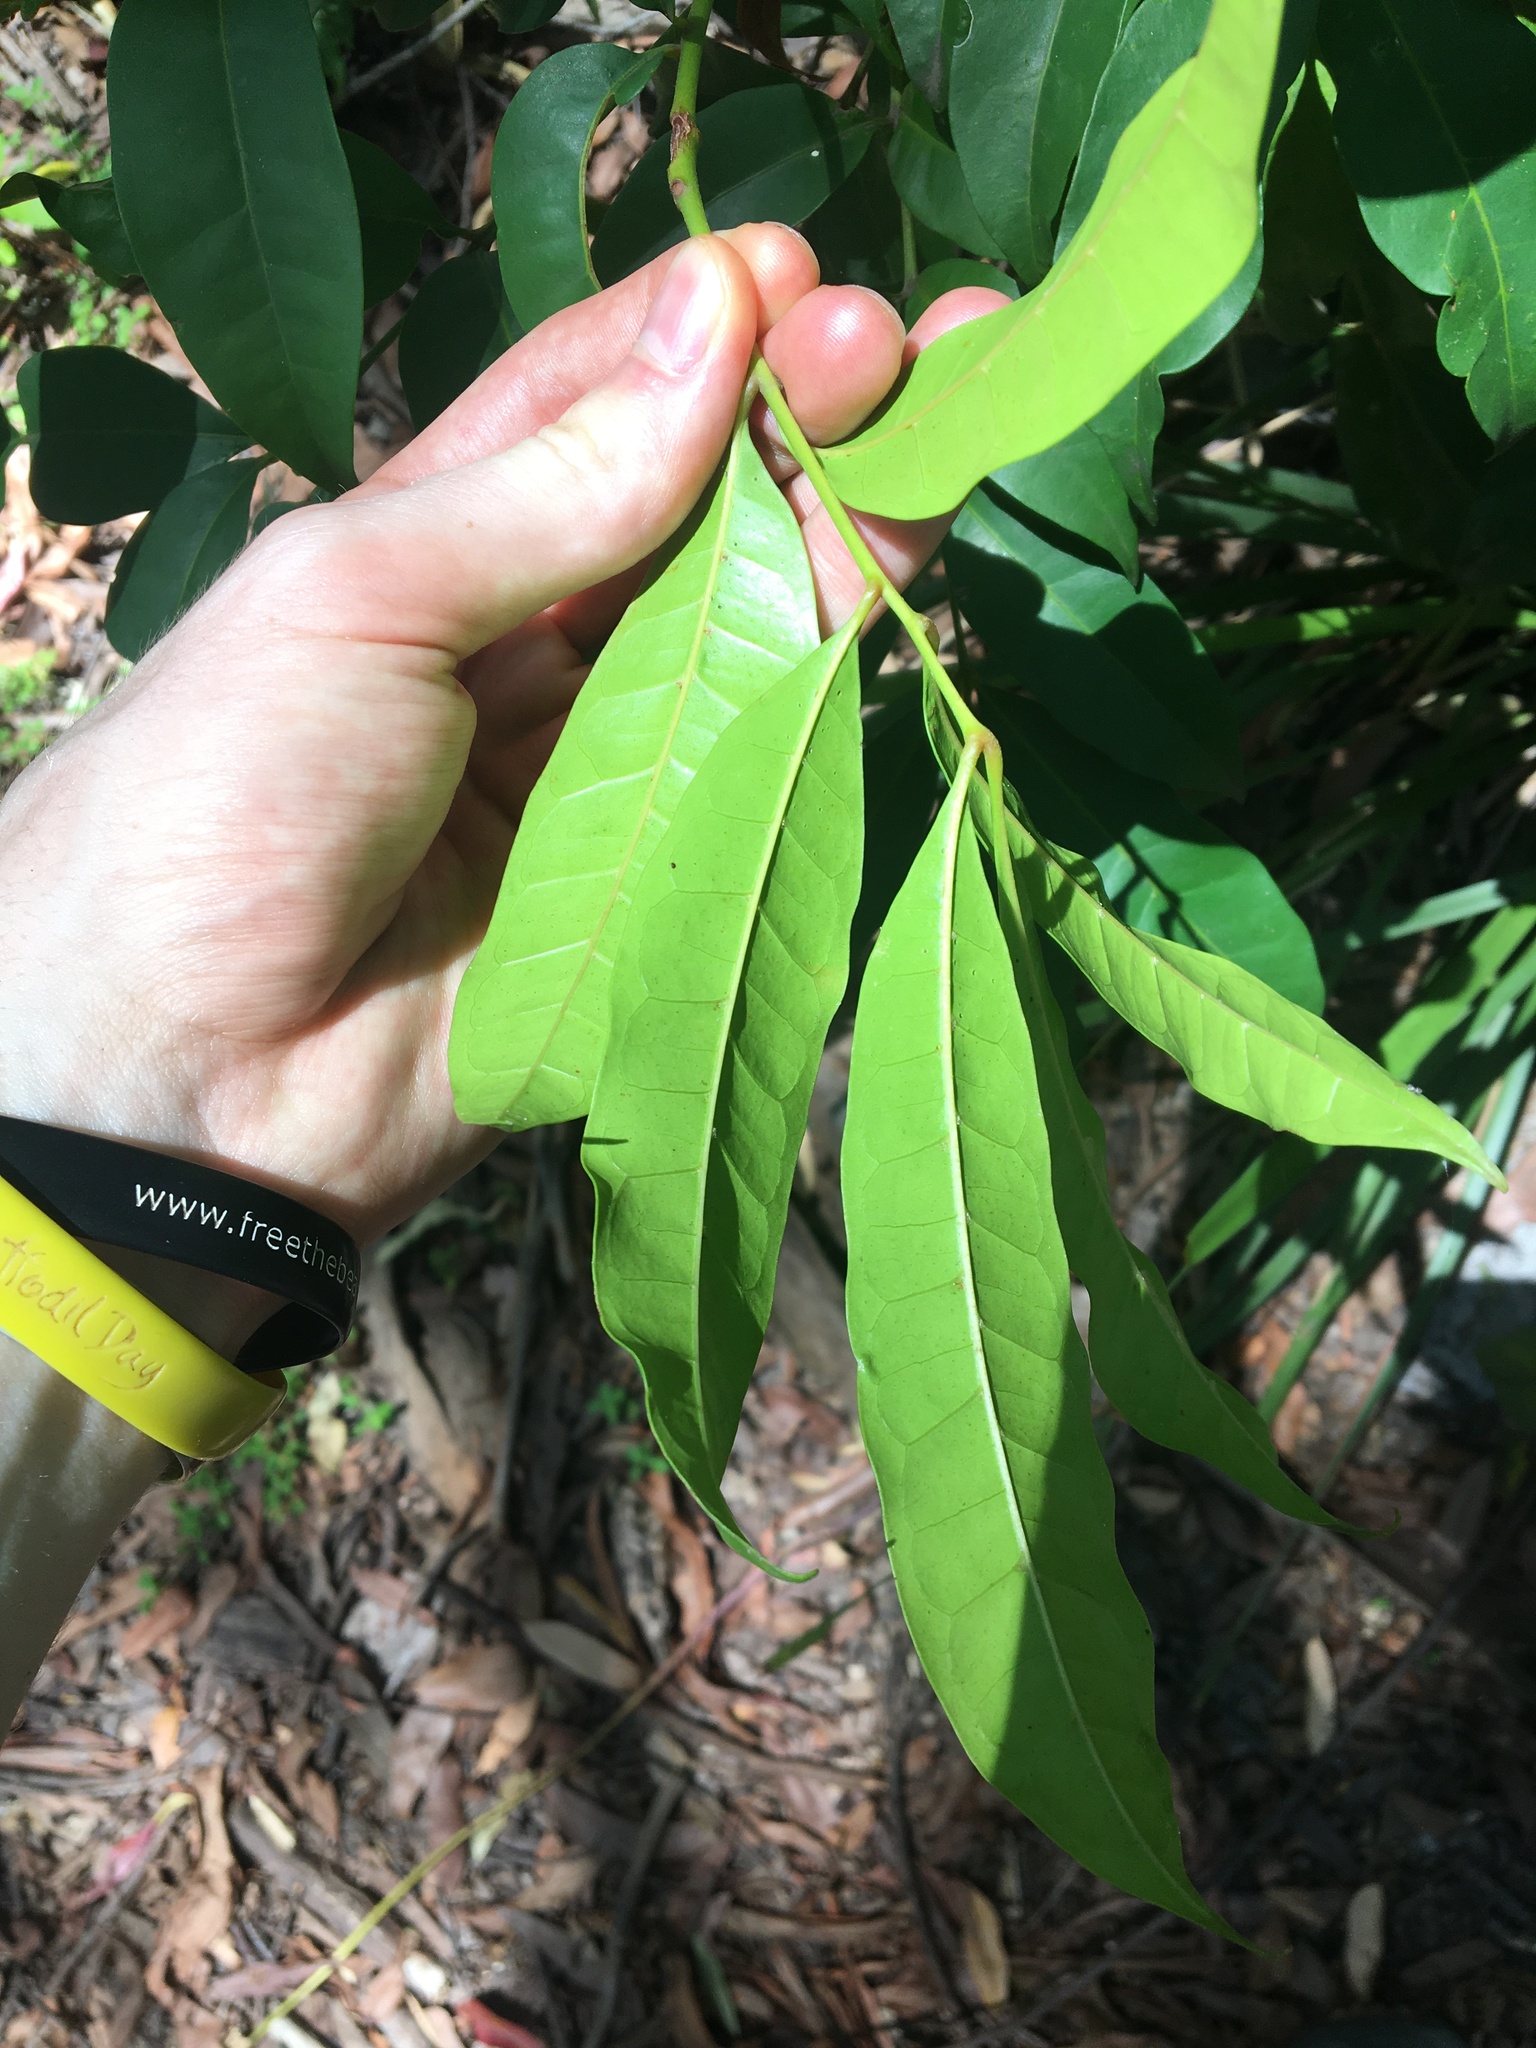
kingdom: Plantae
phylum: Tracheophyta
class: Magnoliopsida
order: Sapindales
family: Meliaceae
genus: Synoum
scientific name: Synoum glandulosum
